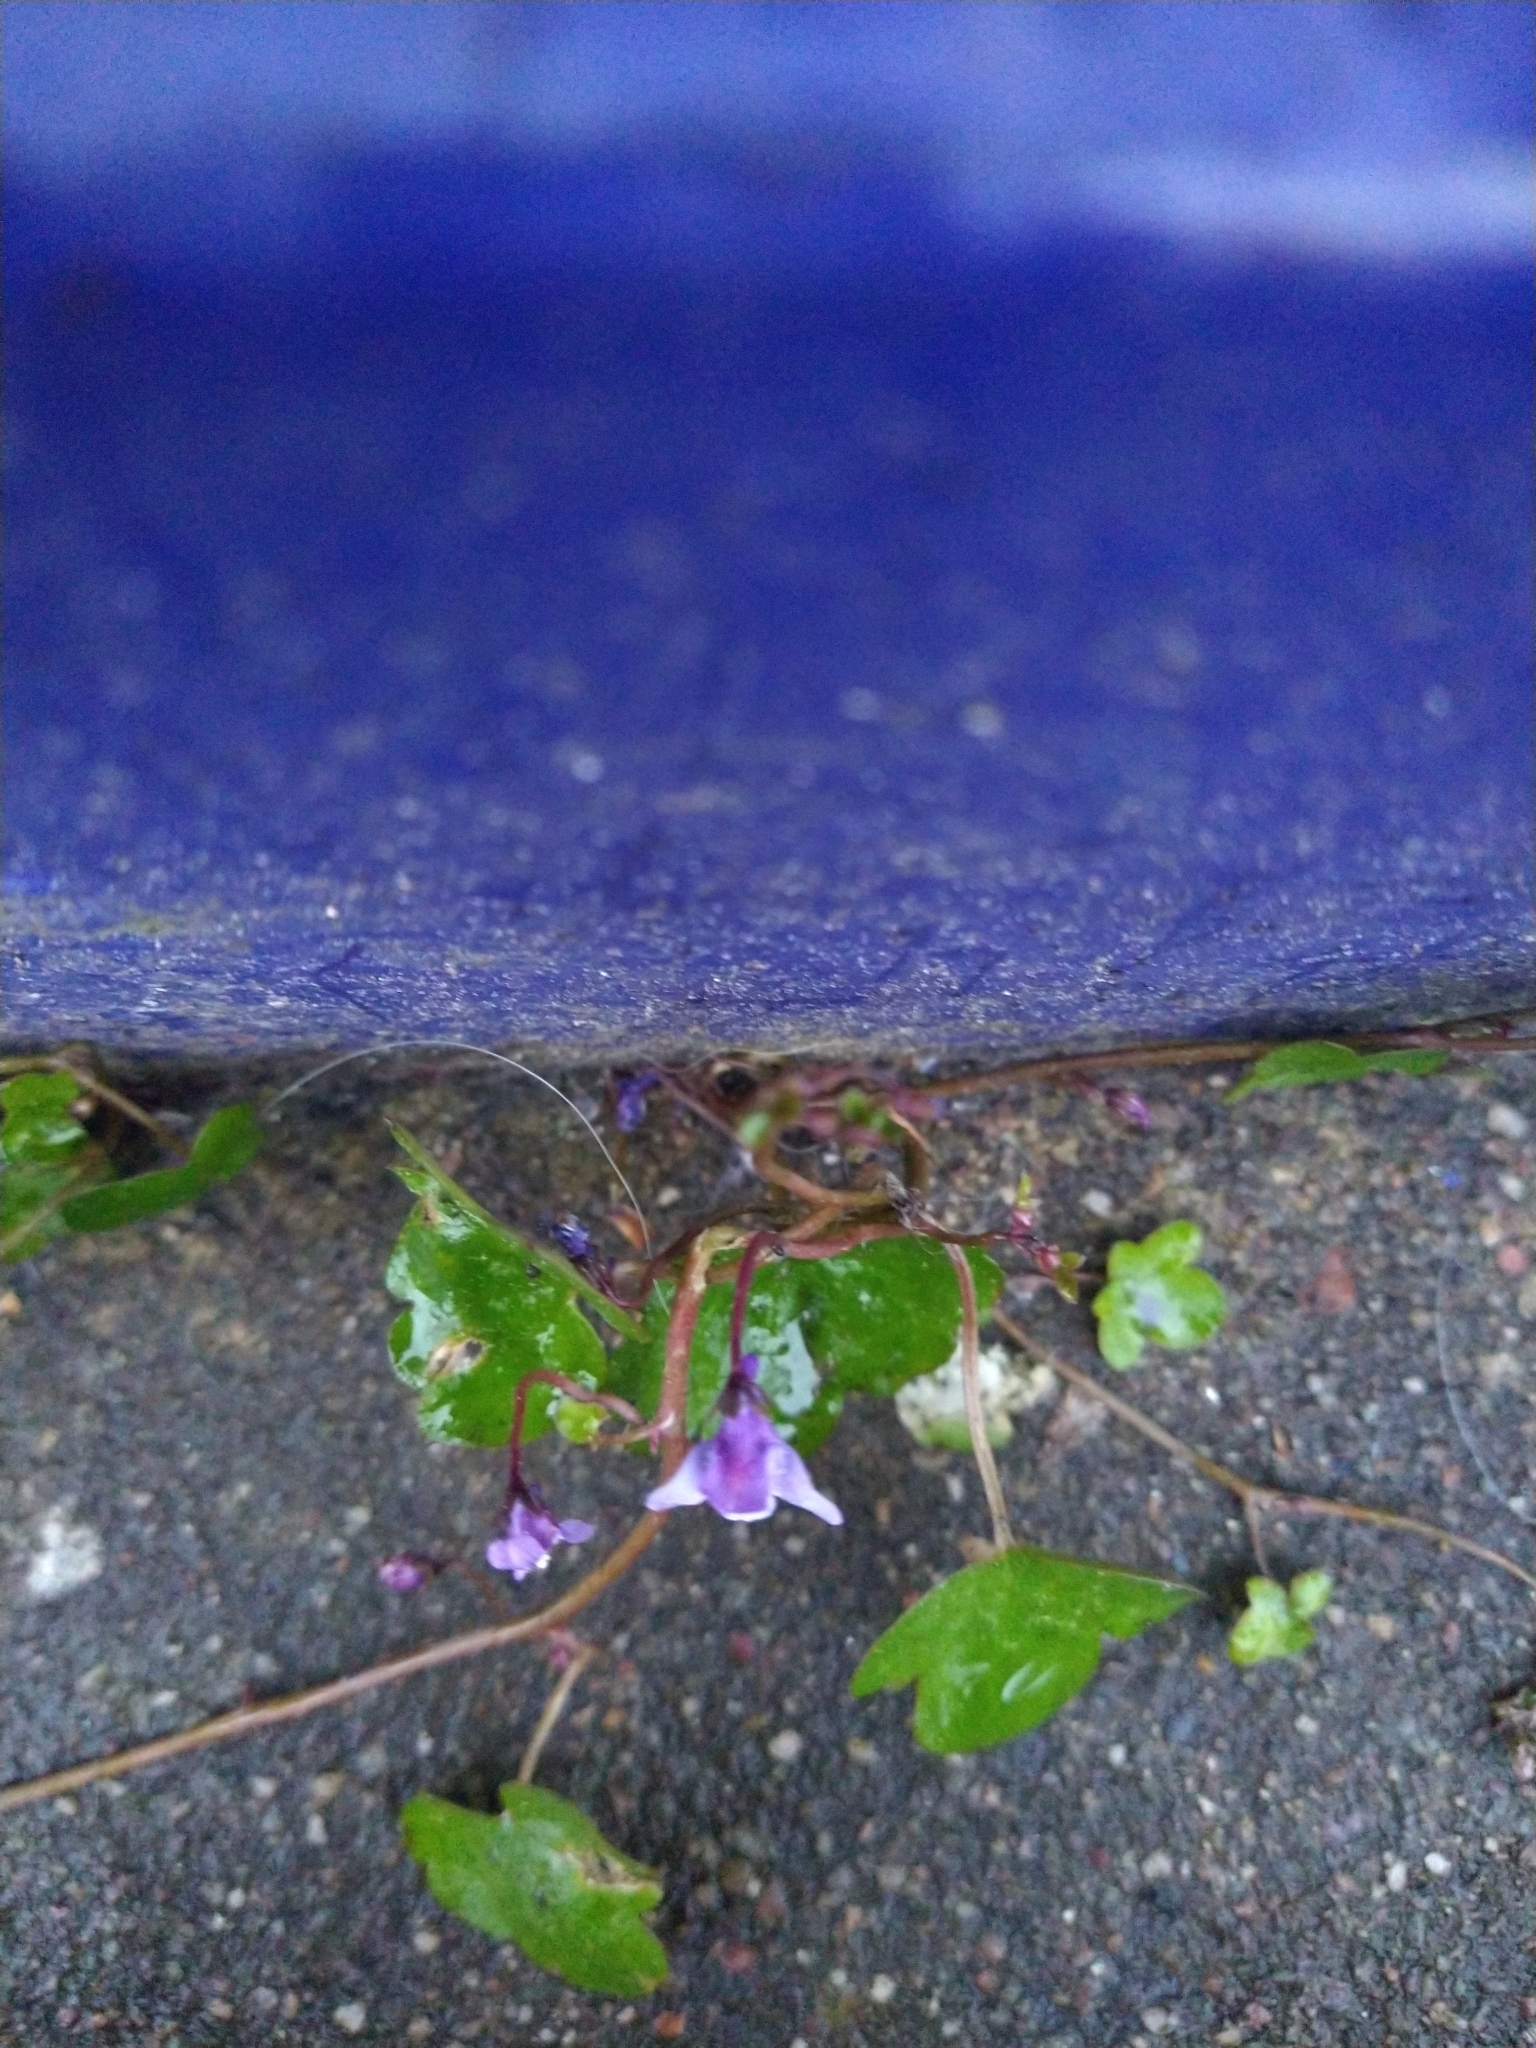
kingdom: Plantae
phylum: Tracheophyta
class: Magnoliopsida
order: Lamiales
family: Plantaginaceae
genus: Cymbalaria
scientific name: Cymbalaria muralis
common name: Ivy-leaved toadflax
